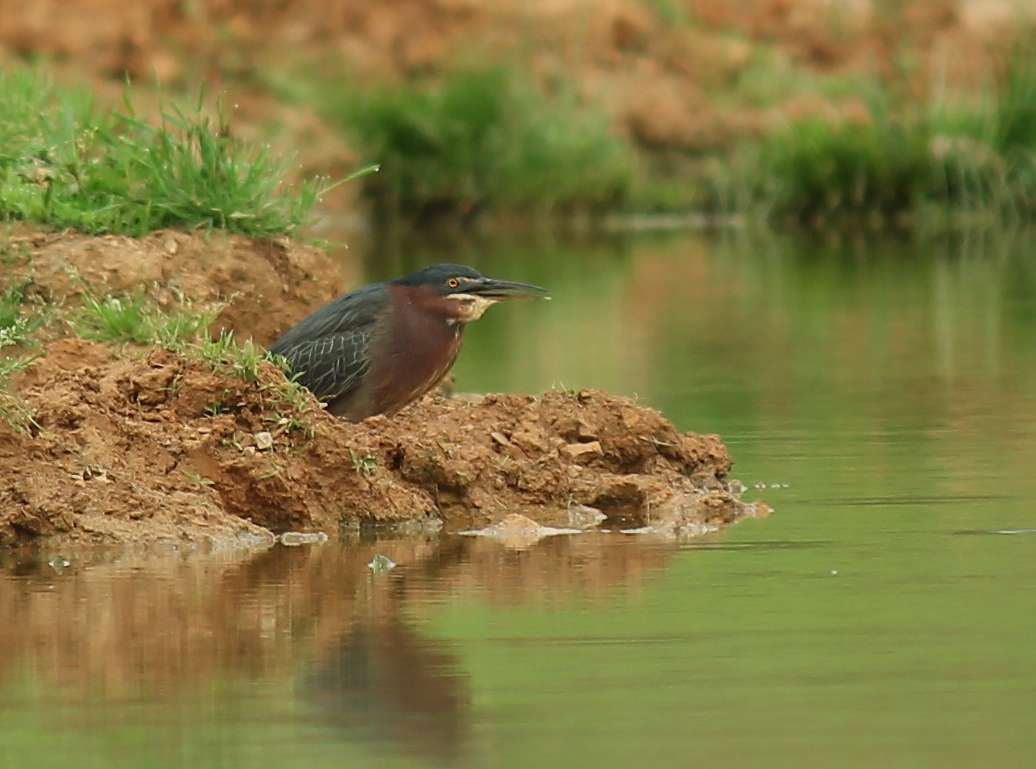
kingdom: Animalia
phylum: Chordata
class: Aves
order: Pelecaniformes
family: Ardeidae
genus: Butorides
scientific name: Butorides virescens
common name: Green heron
